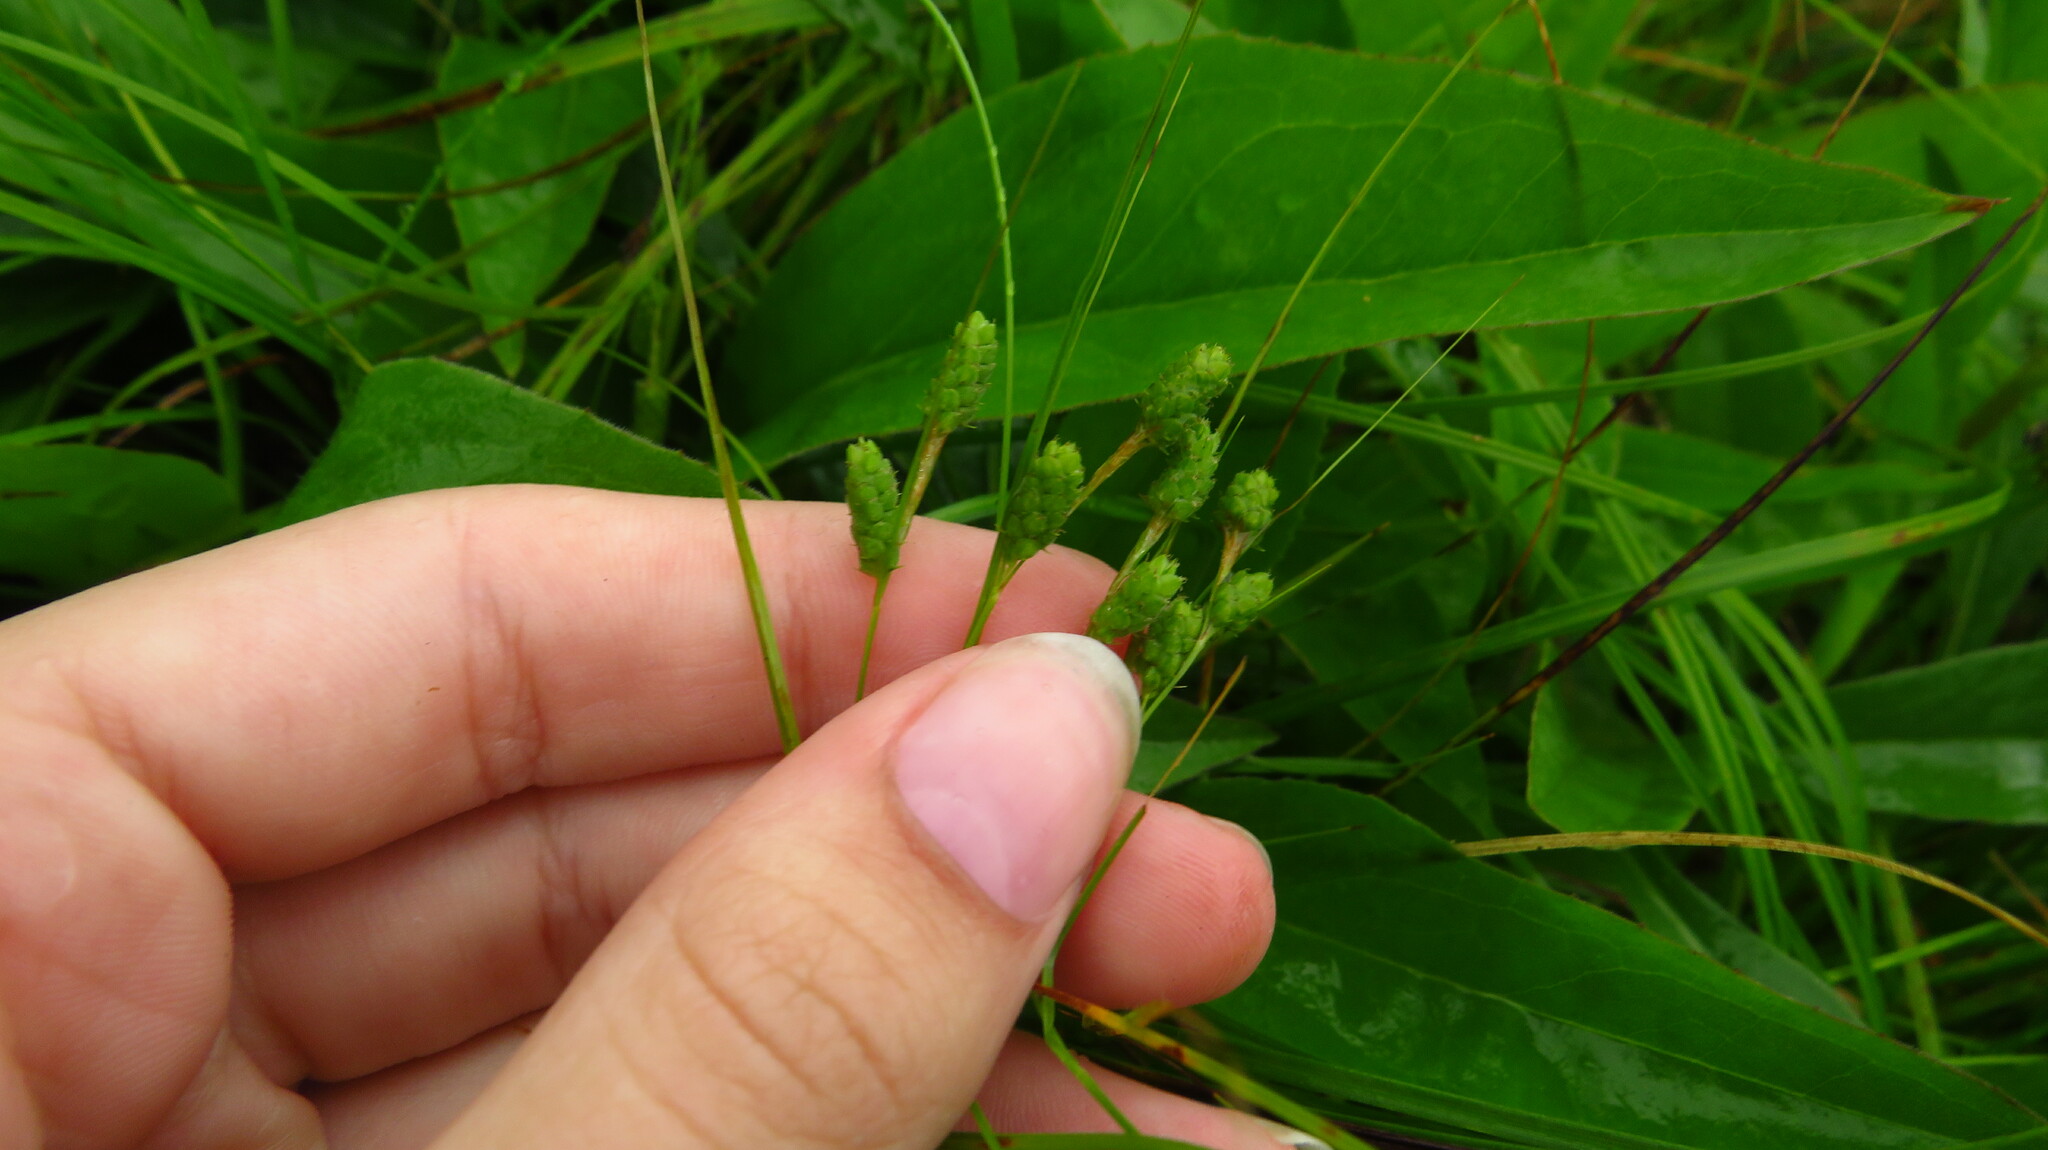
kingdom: Plantae
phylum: Tracheophyta
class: Liliopsida
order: Poales
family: Cyperaceae
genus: Carex
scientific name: Carex swanii
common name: Downy green sedge
